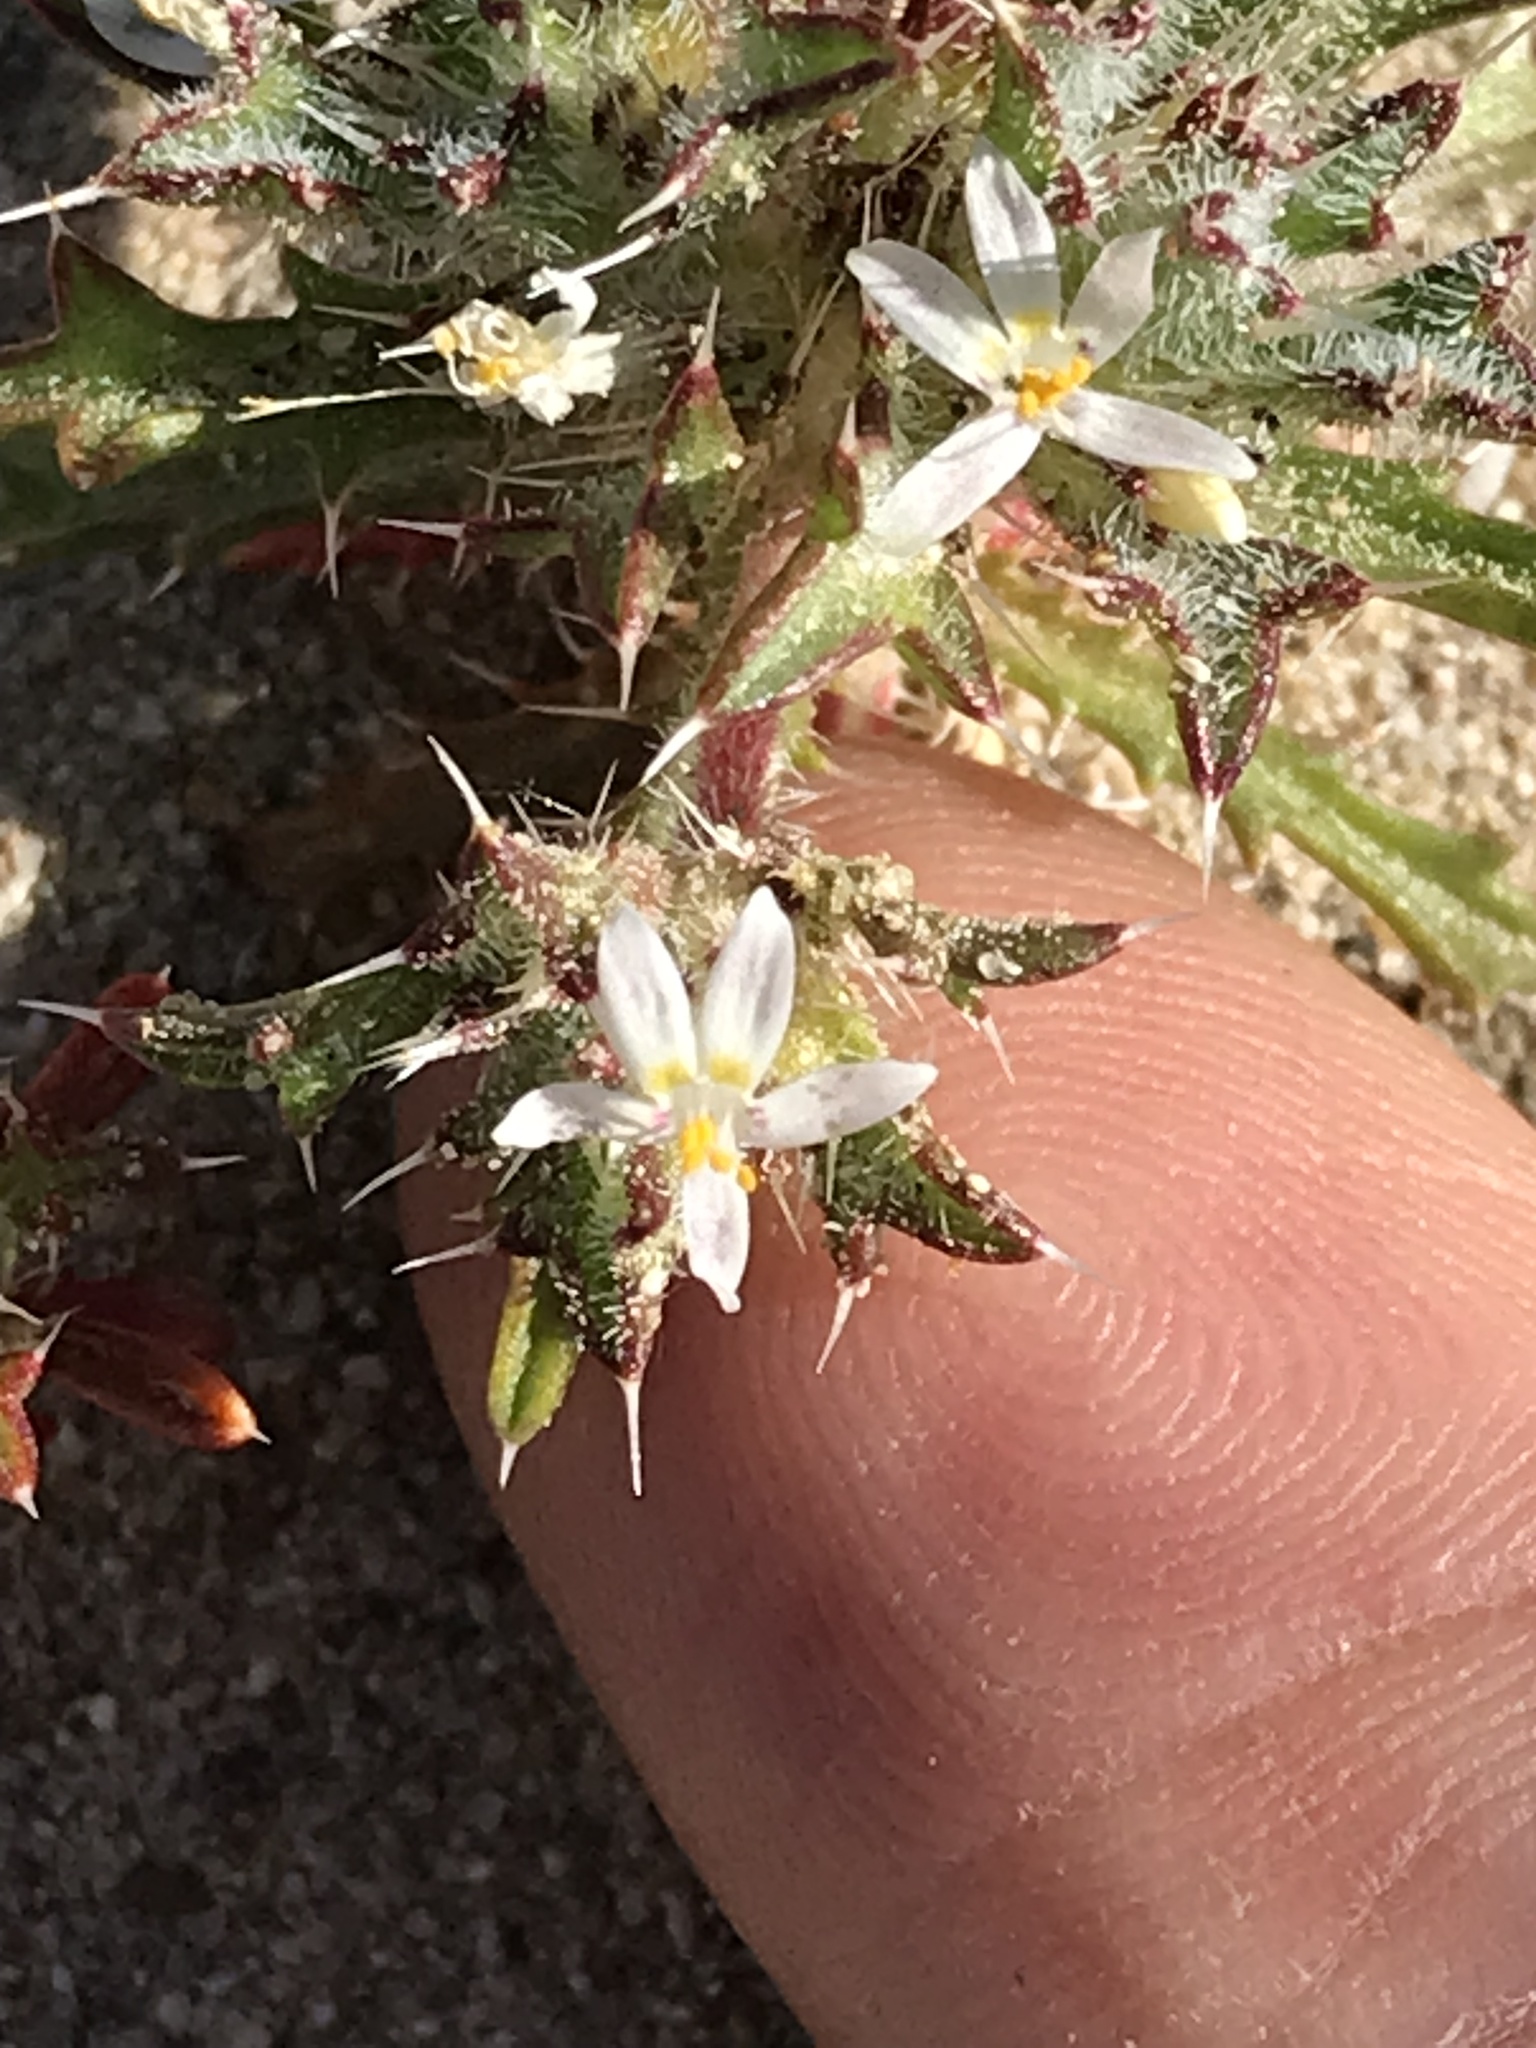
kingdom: Plantae
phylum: Tracheophyta
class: Magnoliopsida
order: Ericales
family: Polemoniaceae
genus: Loeseliastrum
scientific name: Loeseliastrum schottii
